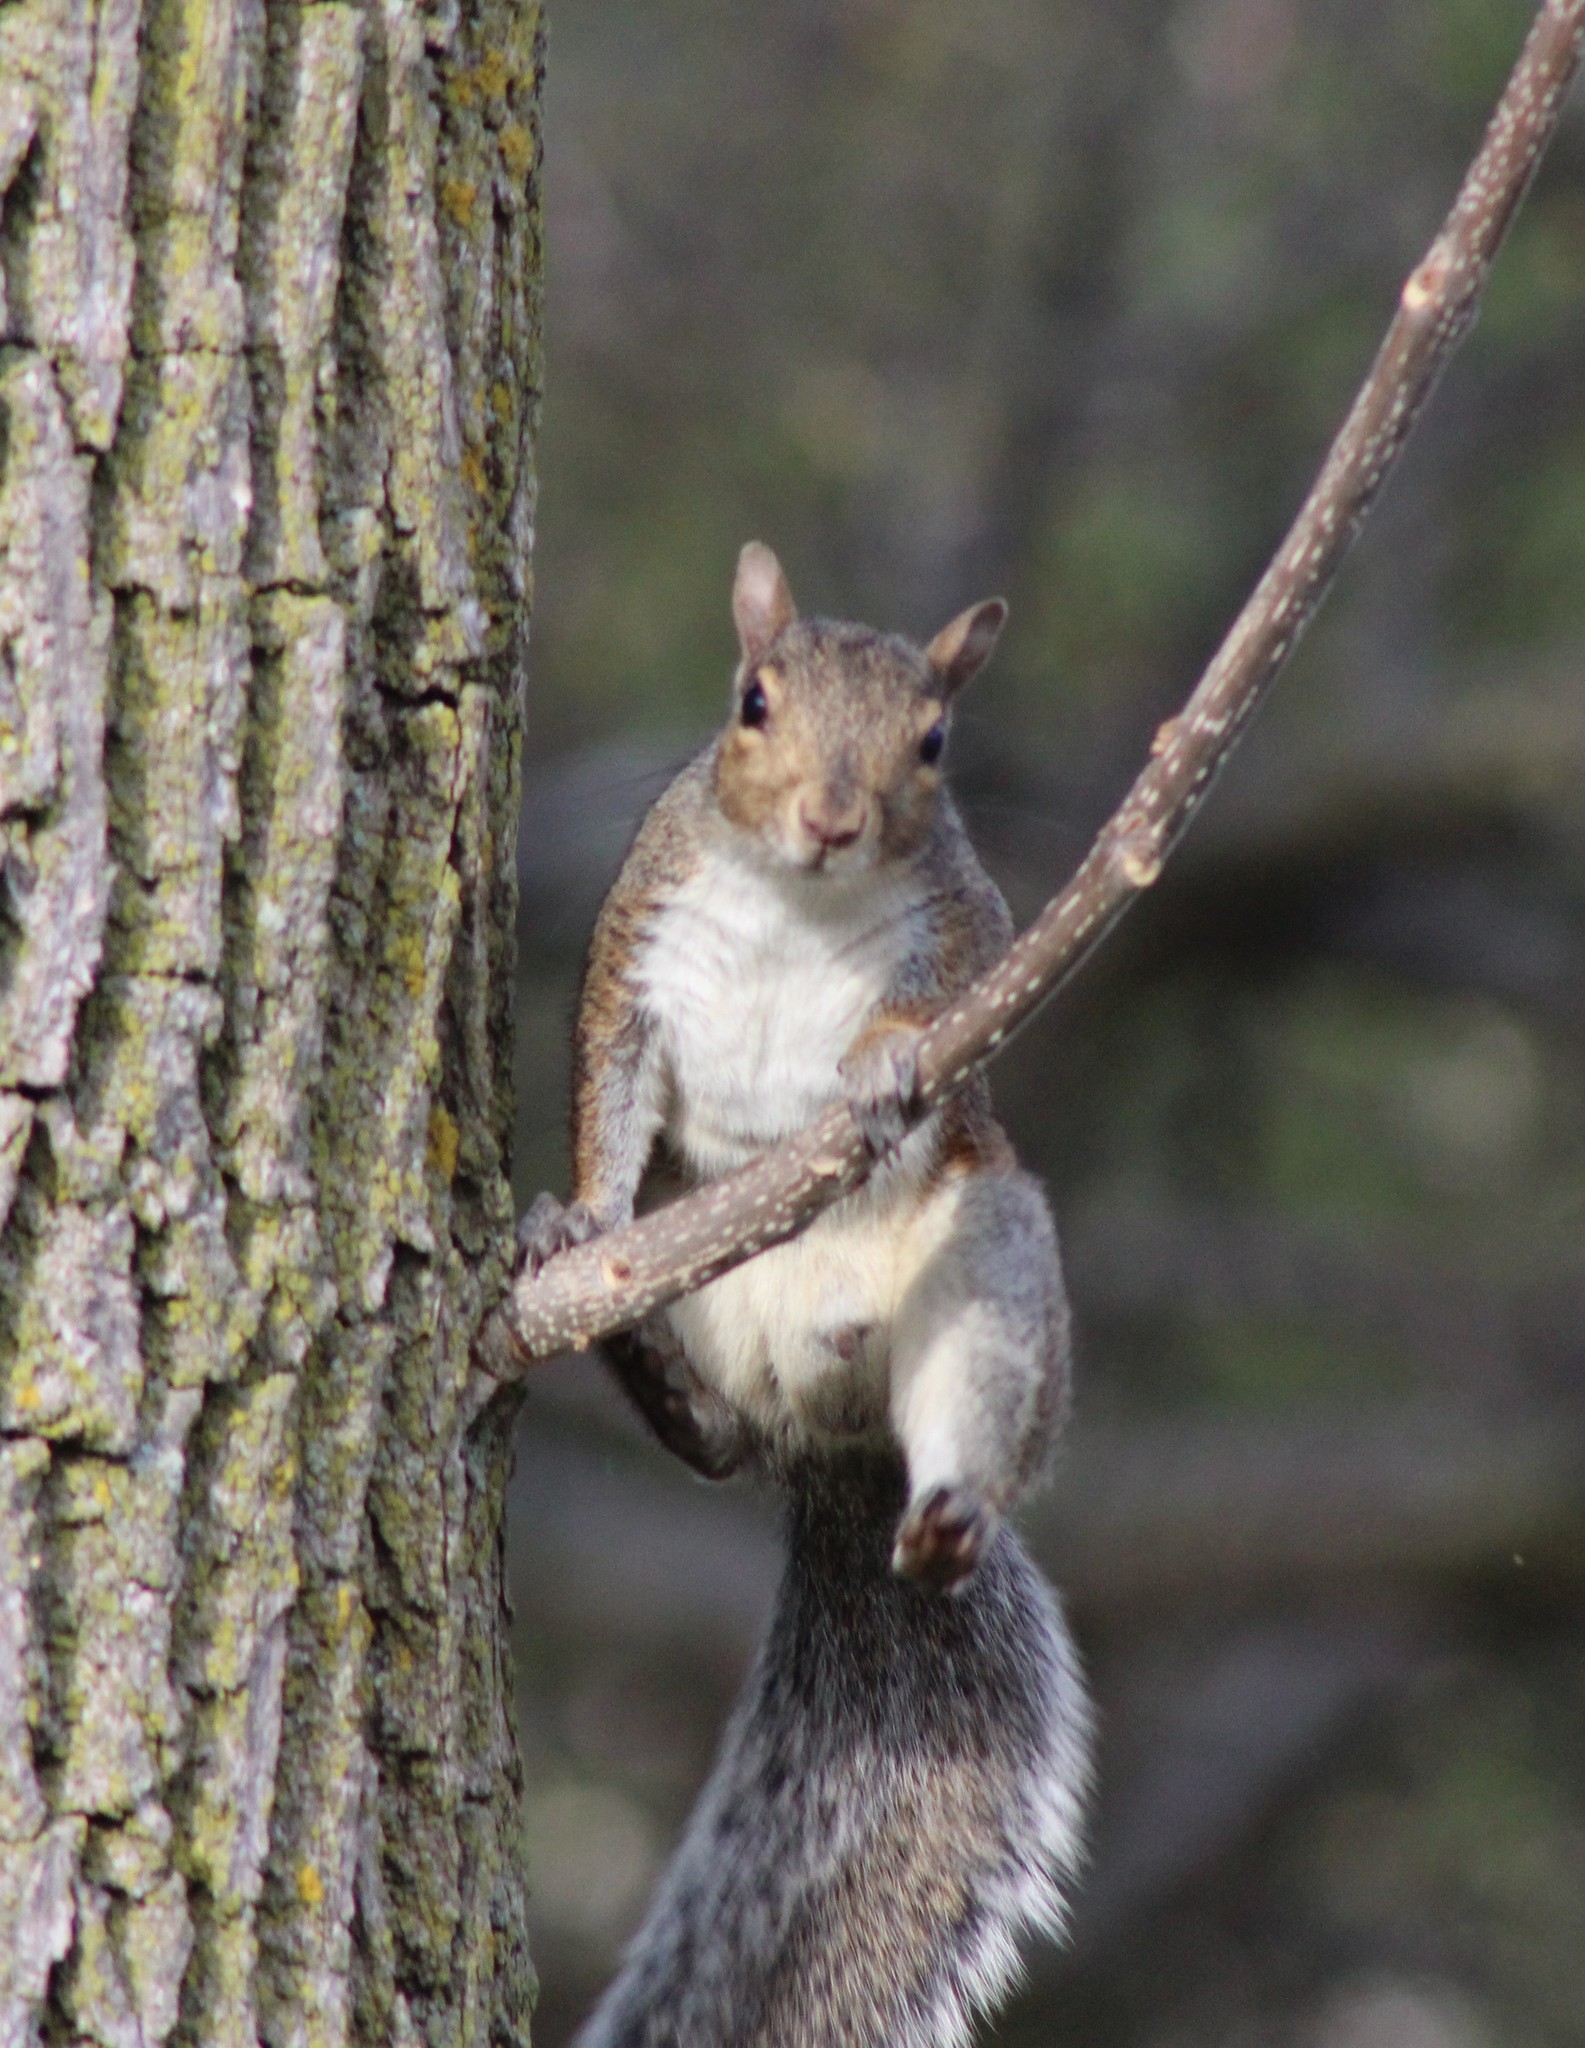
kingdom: Animalia
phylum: Chordata
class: Mammalia
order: Rodentia
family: Sciuridae
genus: Sciurus
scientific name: Sciurus carolinensis
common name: Eastern gray squirrel
